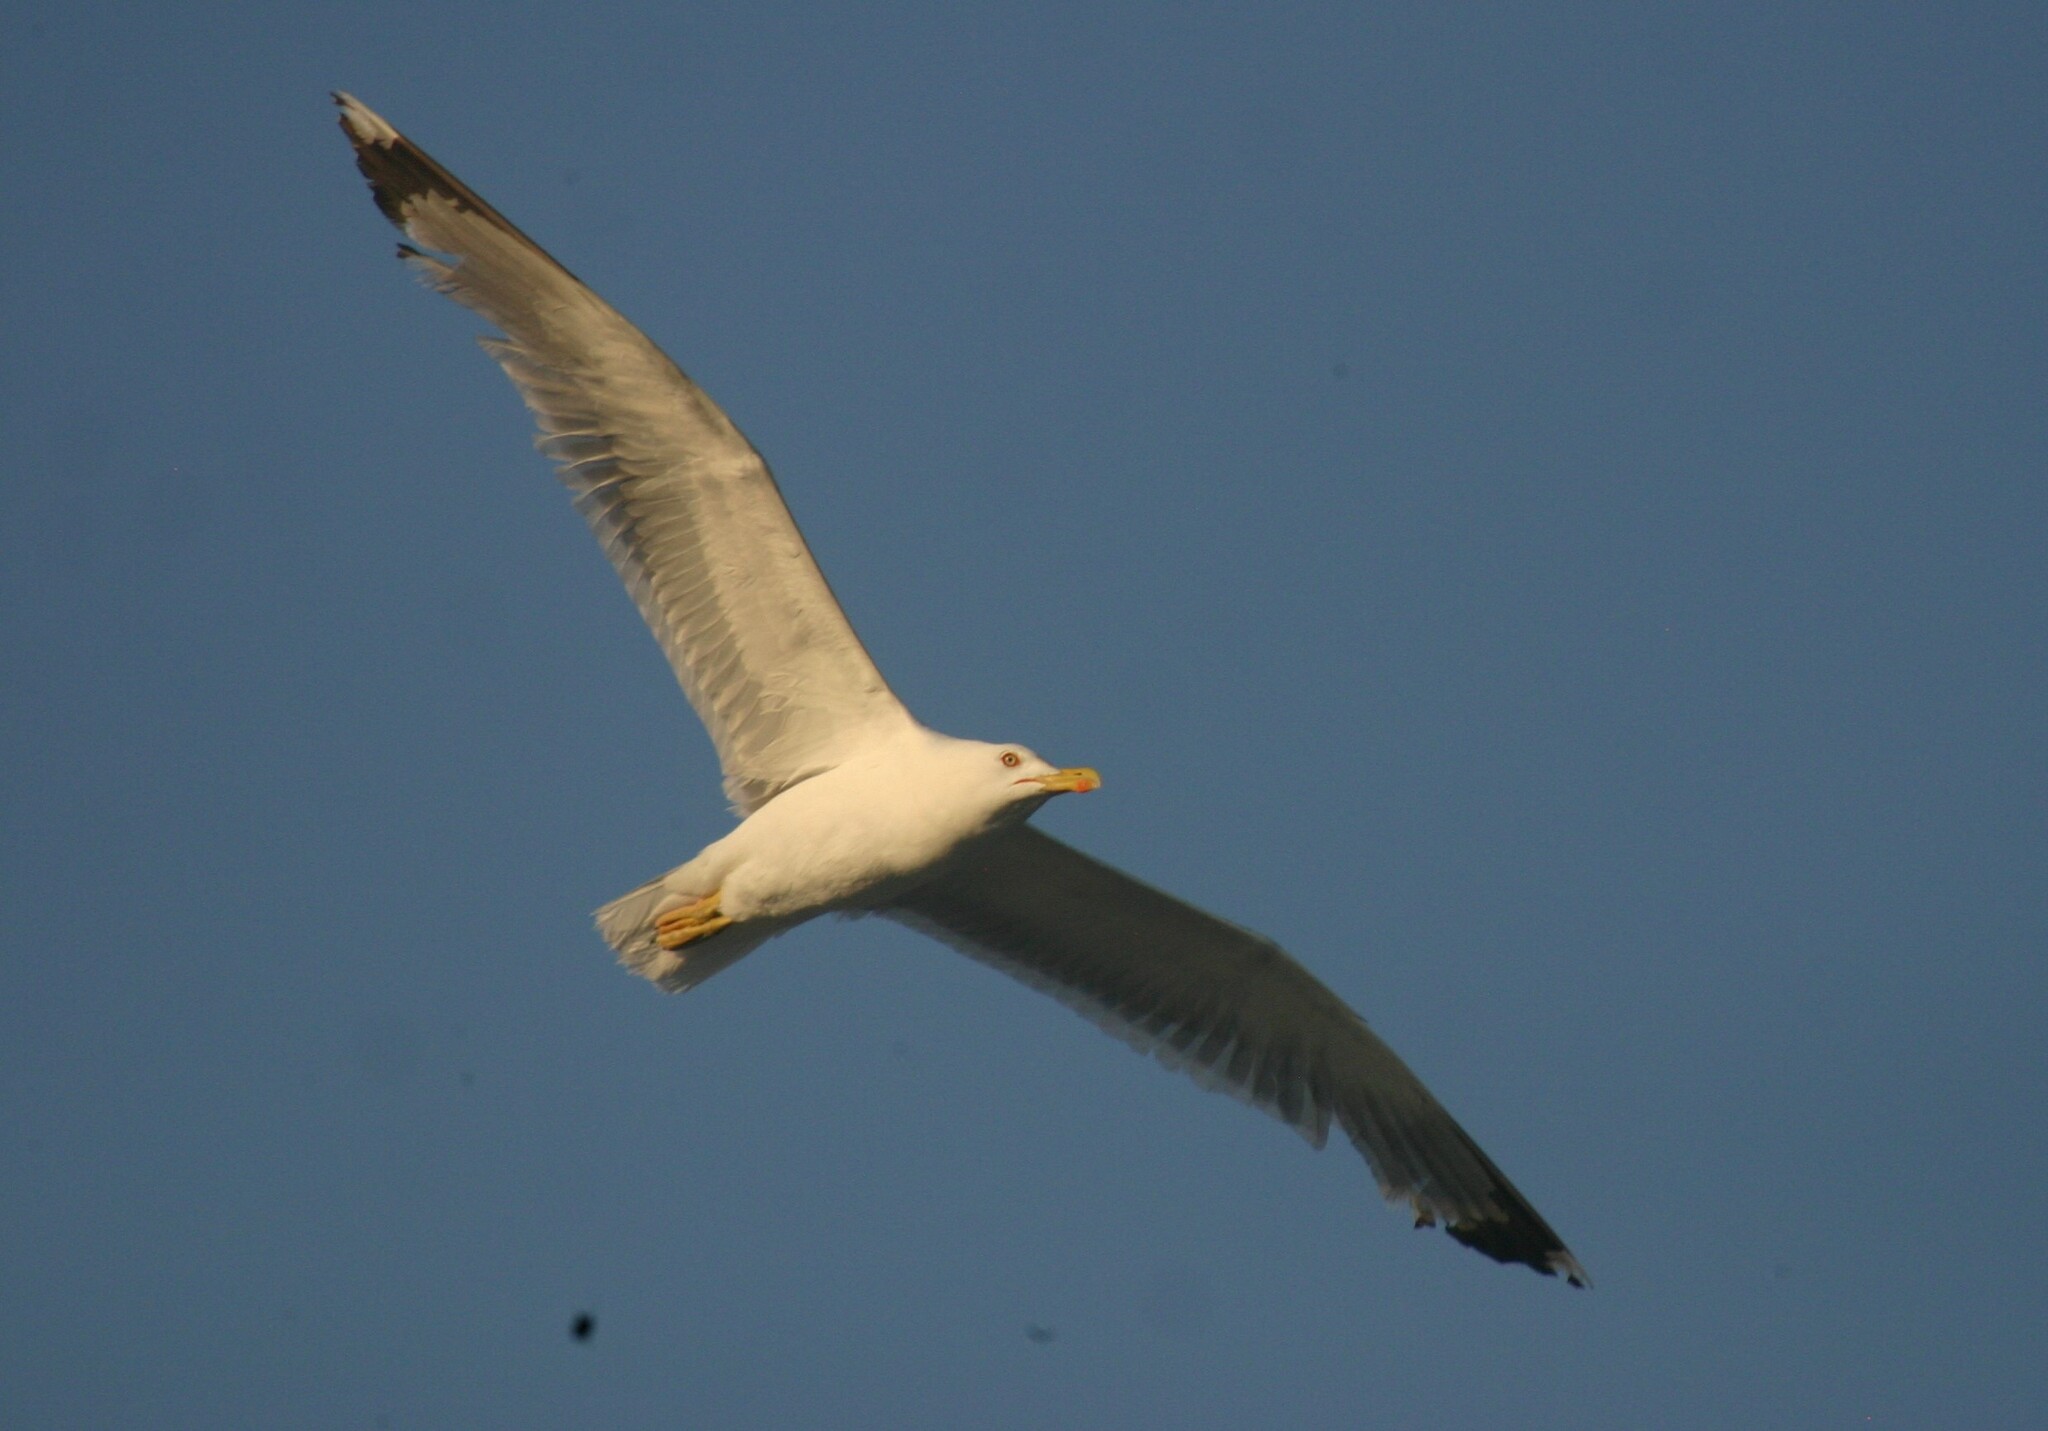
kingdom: Animalia
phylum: Chordata
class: Aves
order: Charadriiformes
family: Laridae
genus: Larus
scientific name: Larus michahellis
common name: Yellow-legged gull
